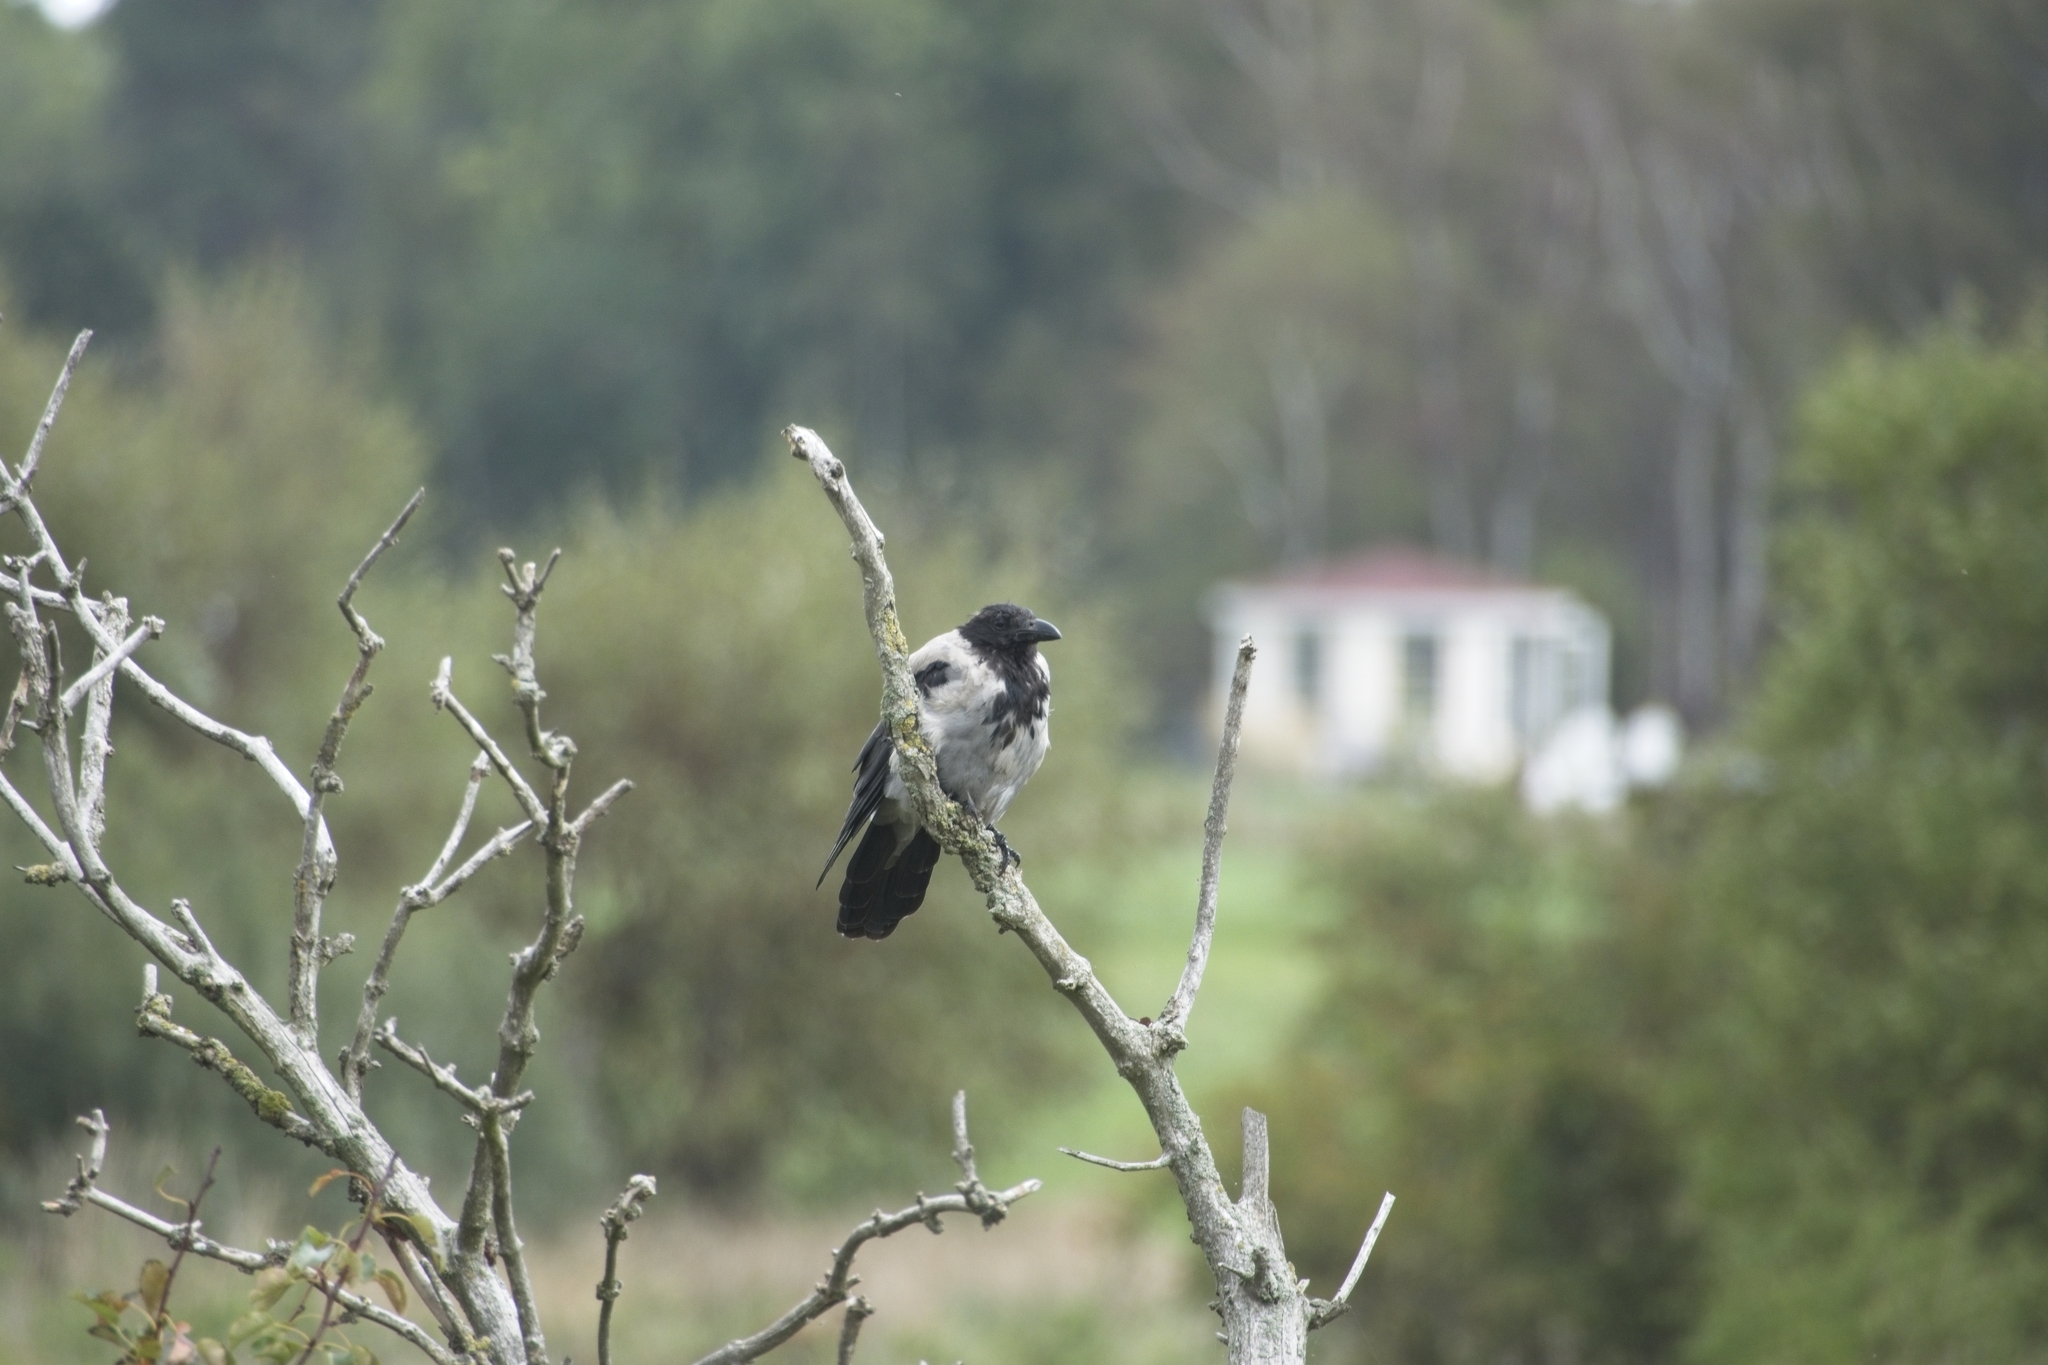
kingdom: Animalia
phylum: Chordata
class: Aves
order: Passeriformes
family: Corvidae
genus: Corvus
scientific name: Corvus cornix
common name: Hooded crow
